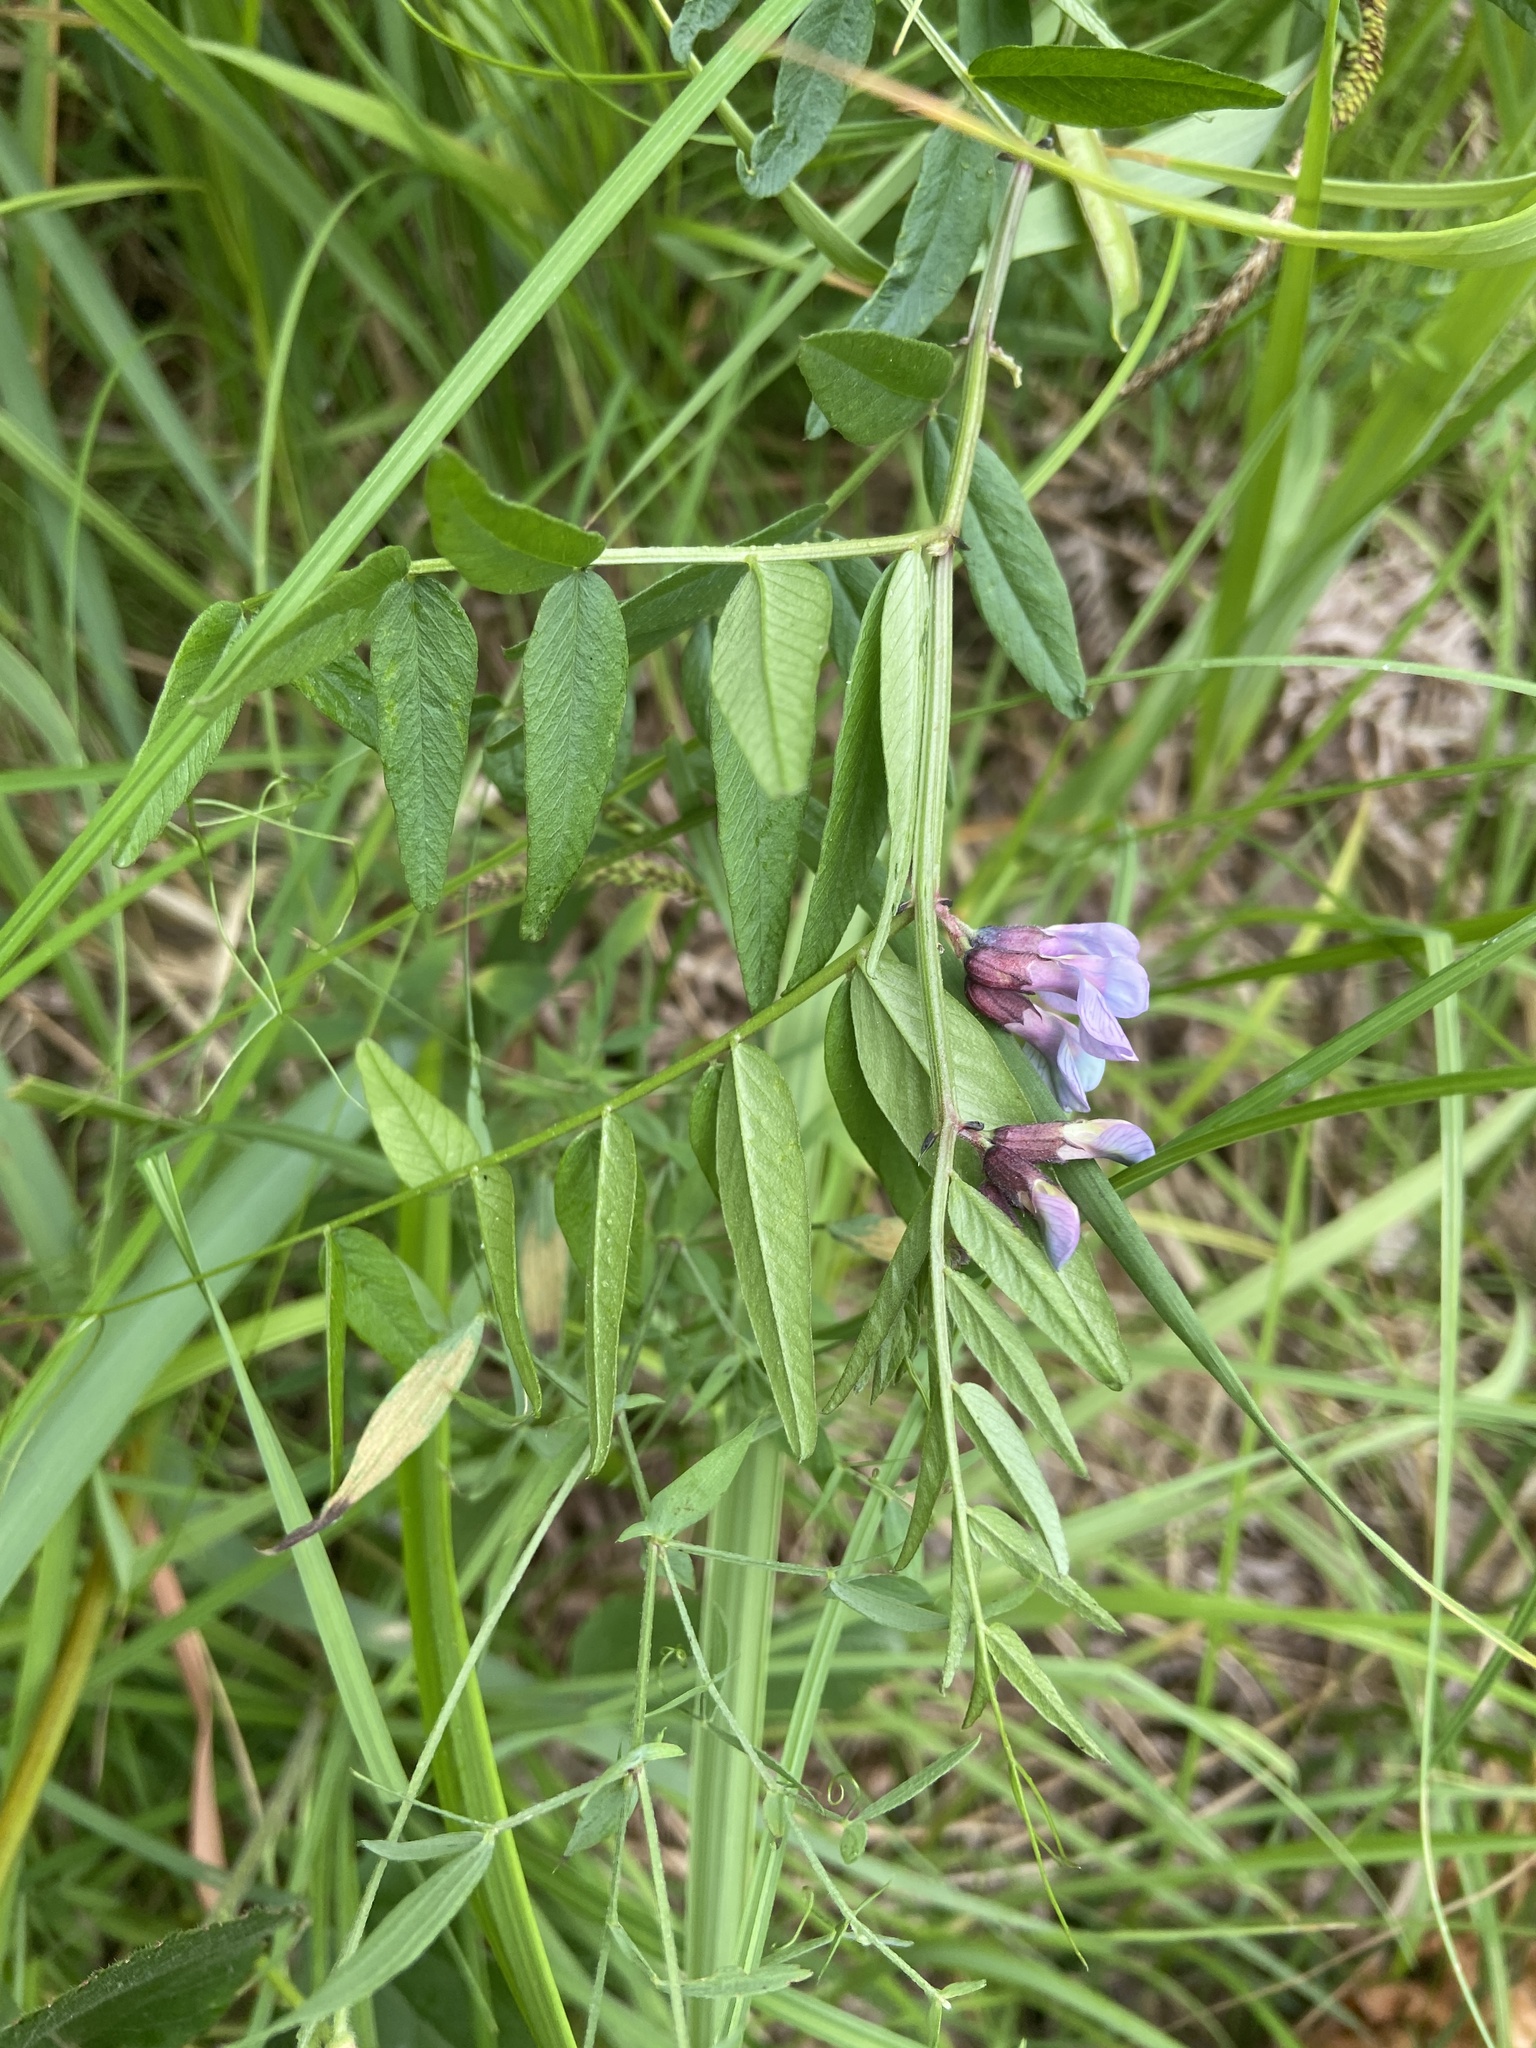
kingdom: Plantae
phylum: Tracheophyta
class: Magnoliopsida
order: Fabales
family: Fabaceae
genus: Vicia
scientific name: Vicia sepium
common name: Bush vetch
